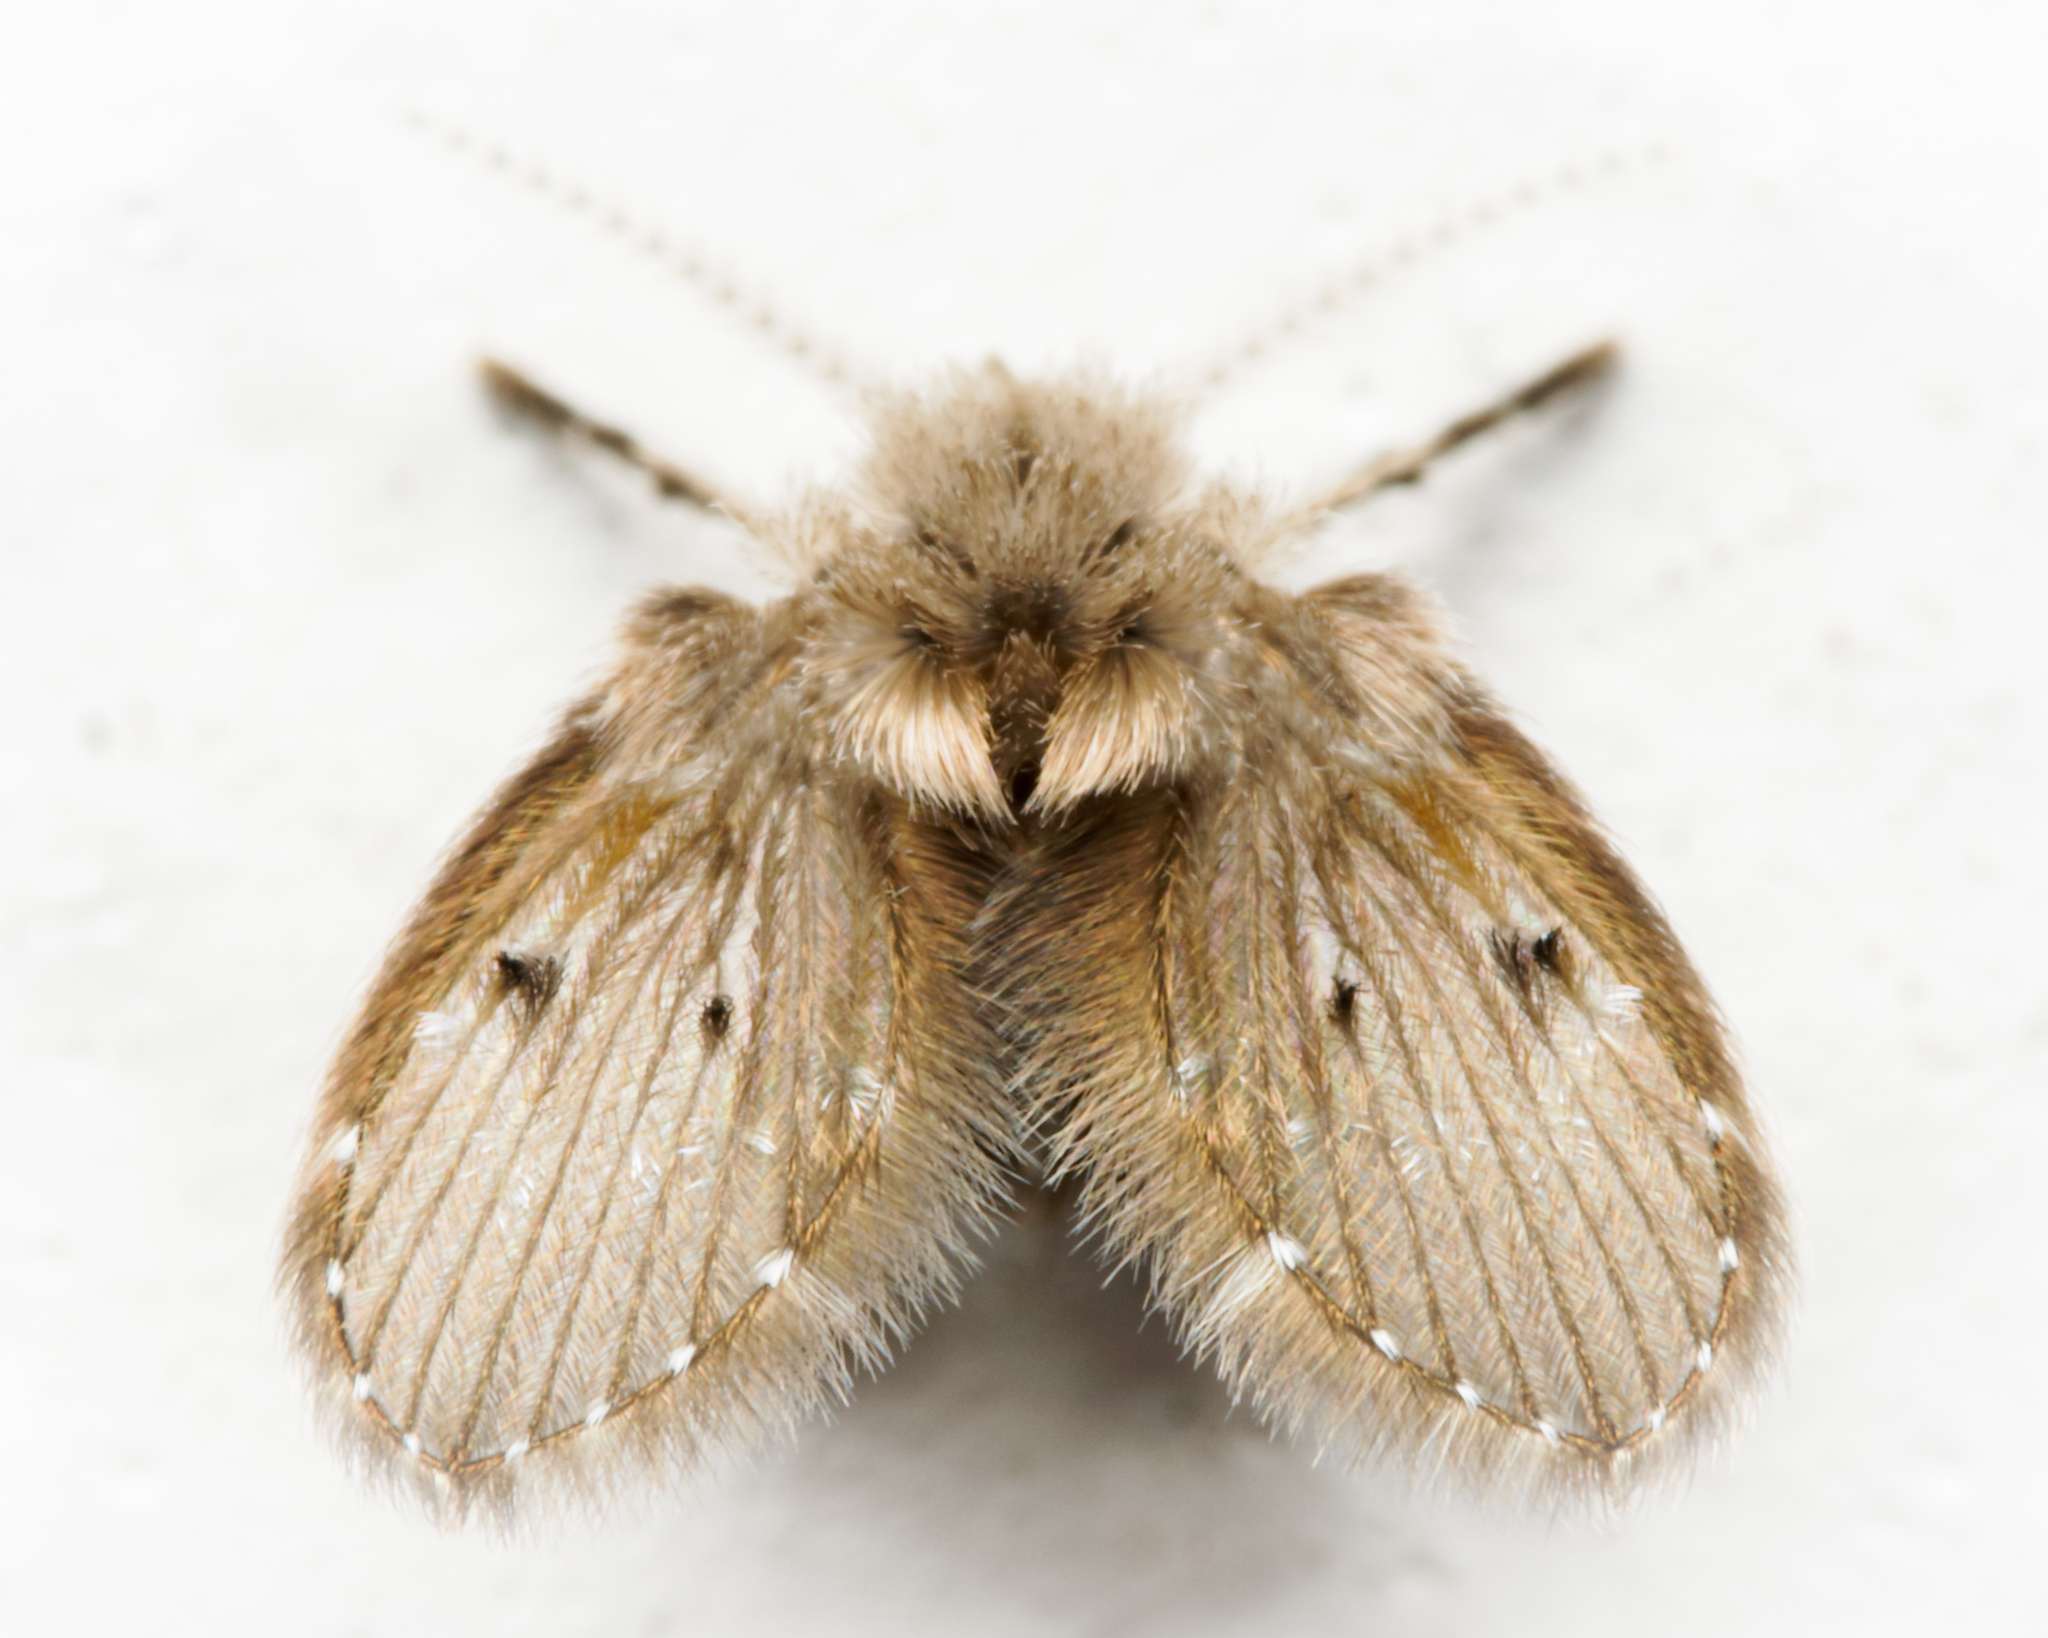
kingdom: Animalia
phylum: Arthropoda
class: Insecta
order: Diptera
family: Psychodidae
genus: Clogmia
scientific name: Clogmia albipunctatus
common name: White-spotted moth fly
